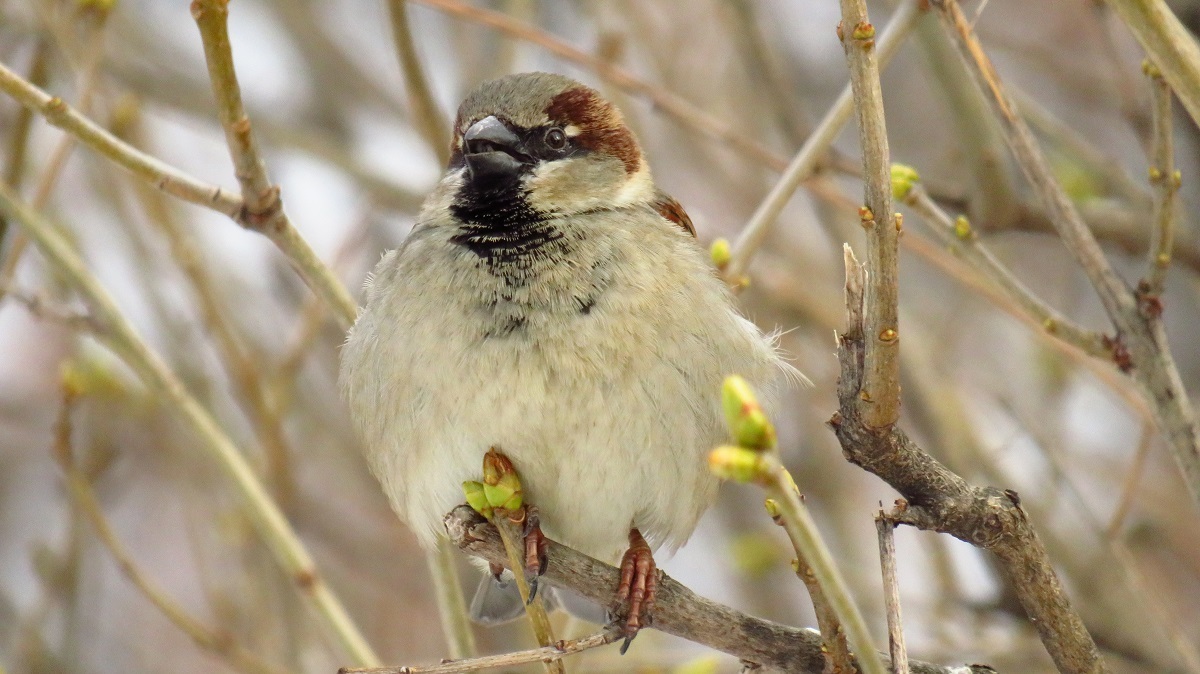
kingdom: Animalia
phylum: Chordata
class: Aves
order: Passeriformes
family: Passeridae
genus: Passer
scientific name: Passer domesticus
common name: House sparrow
